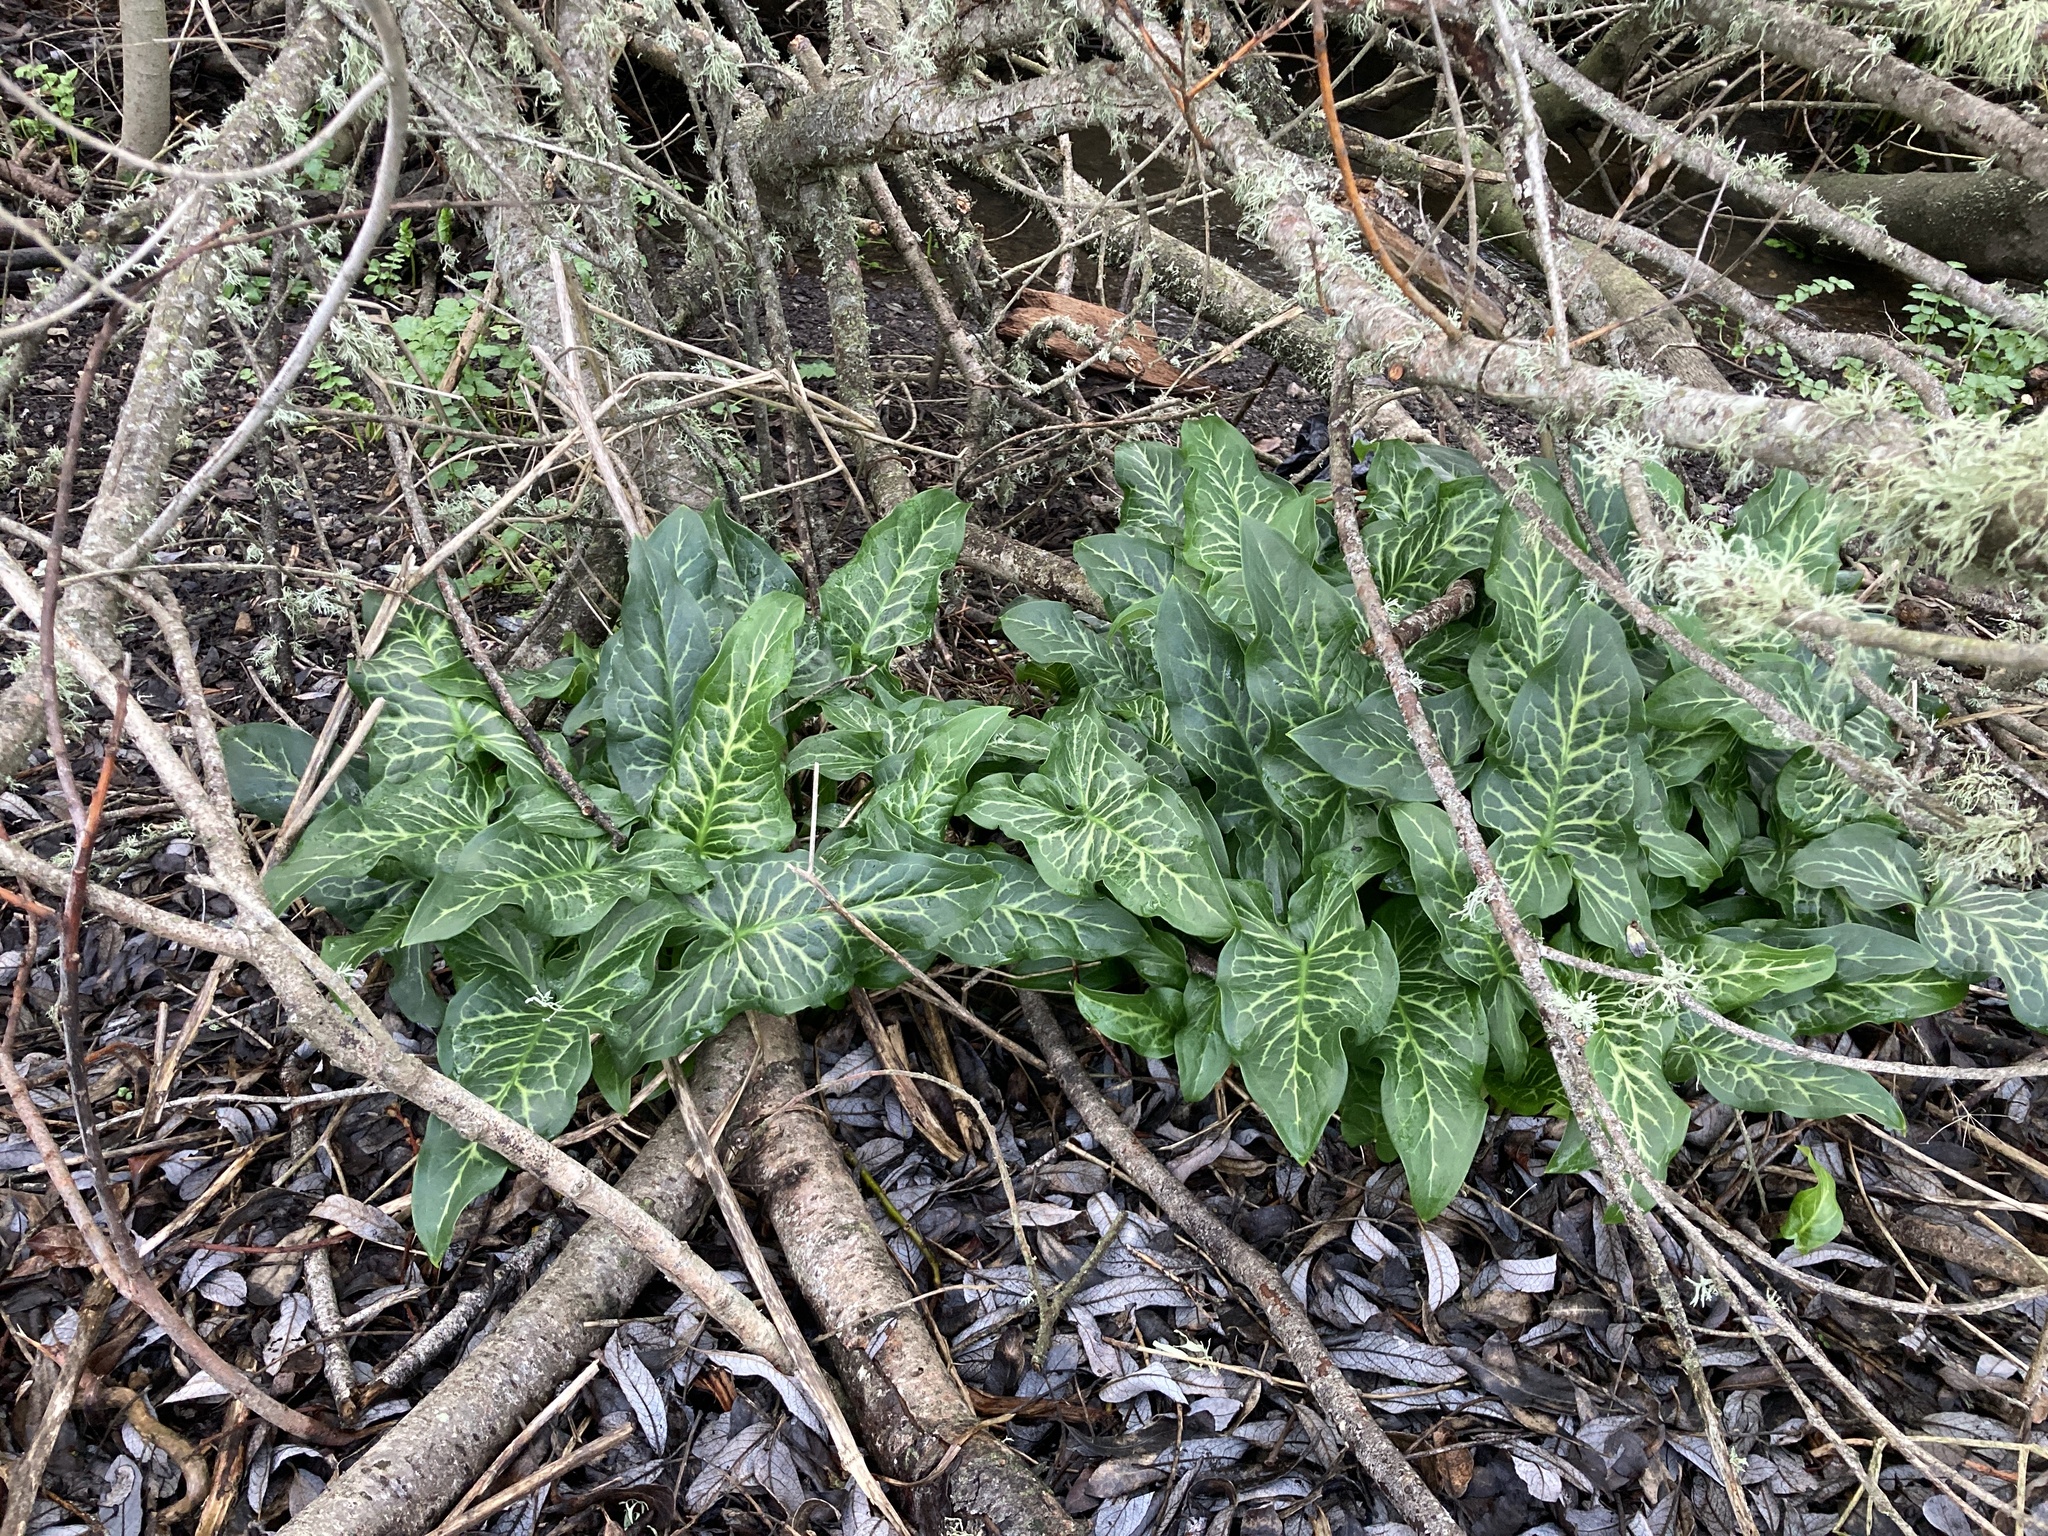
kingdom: Plantae
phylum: Tracheophyta
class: Liliopsida
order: Alismatales
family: Araceae
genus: Arum
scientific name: Arum italicum
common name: Italian lords-and-ladies
